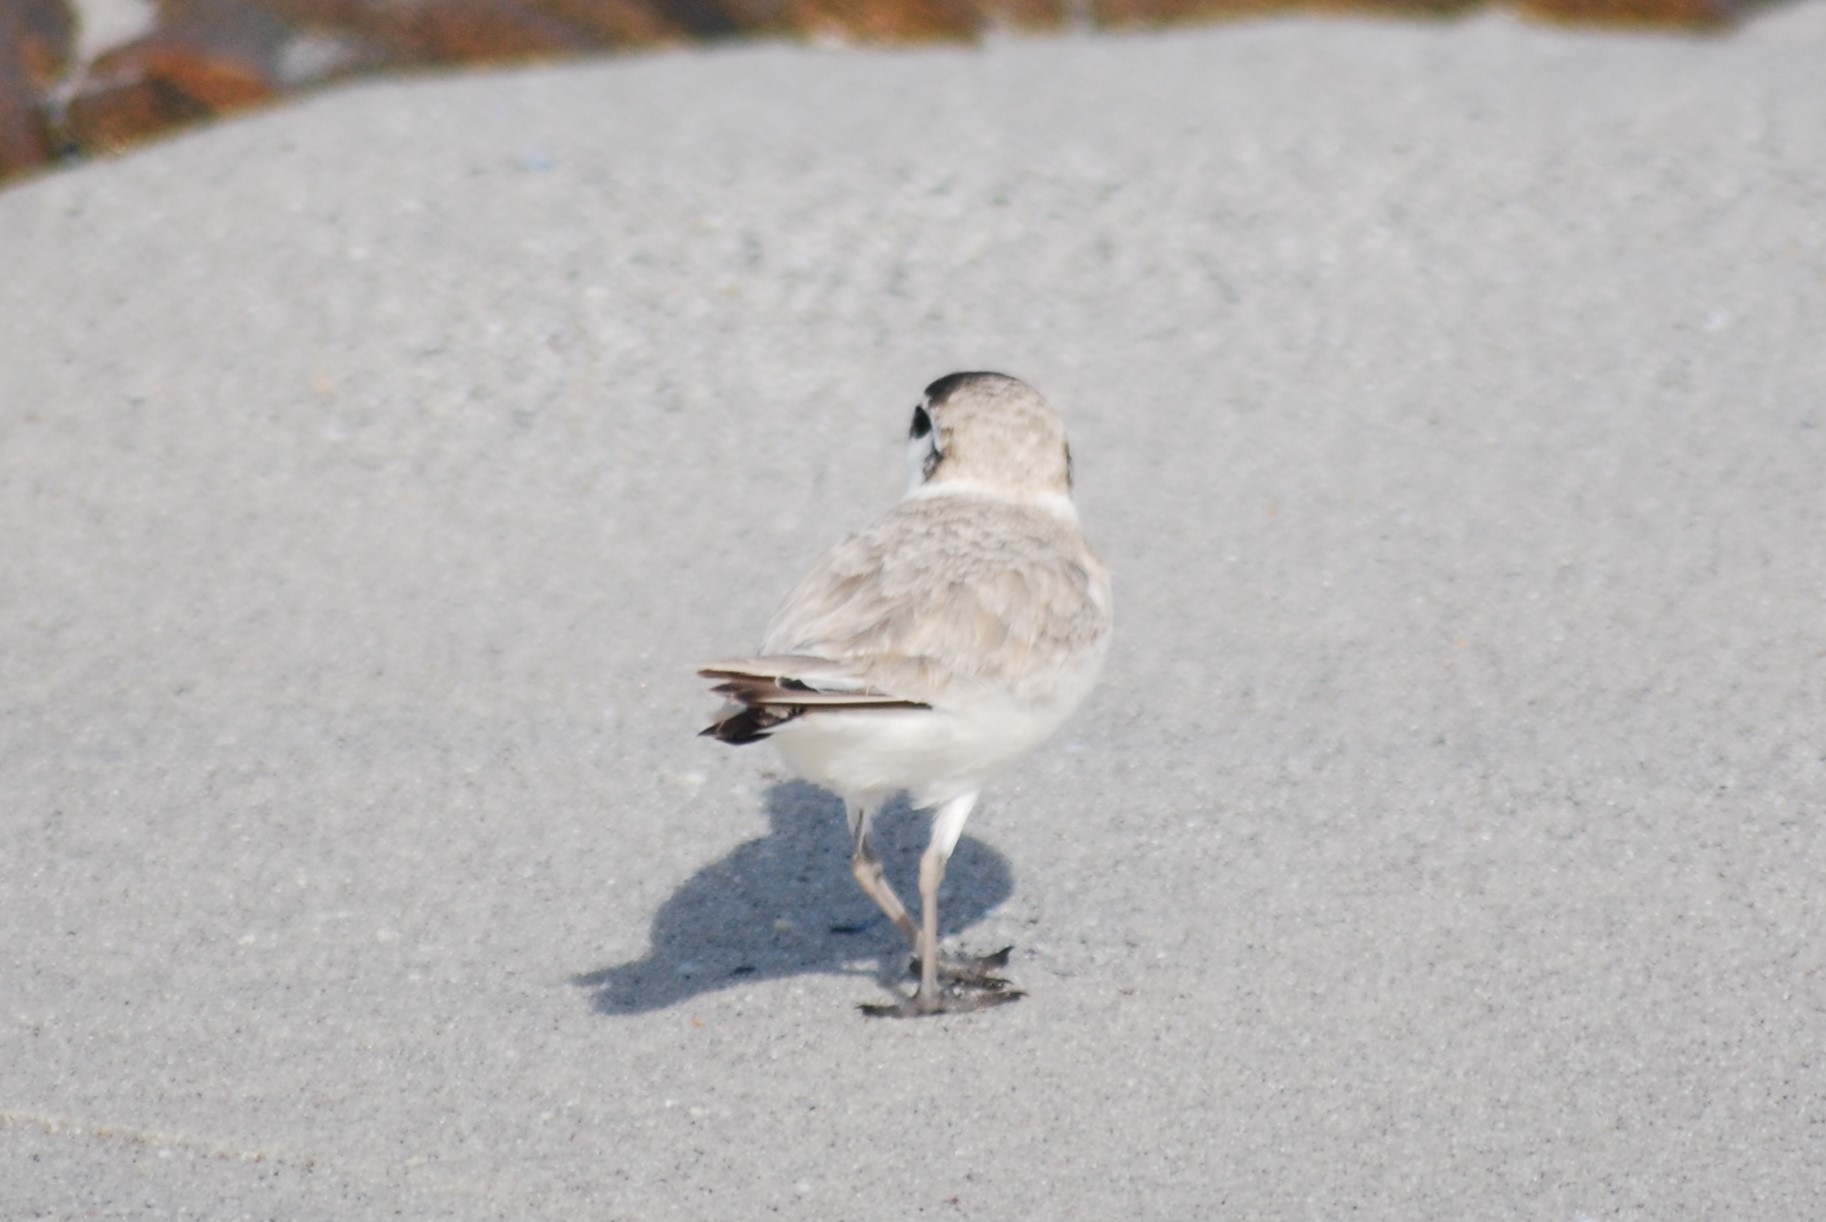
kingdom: Animalia
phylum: Chordata
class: Aves
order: Charadriiformes
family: Charadriidae
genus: Anarhynchus
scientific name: Anarhynchus
